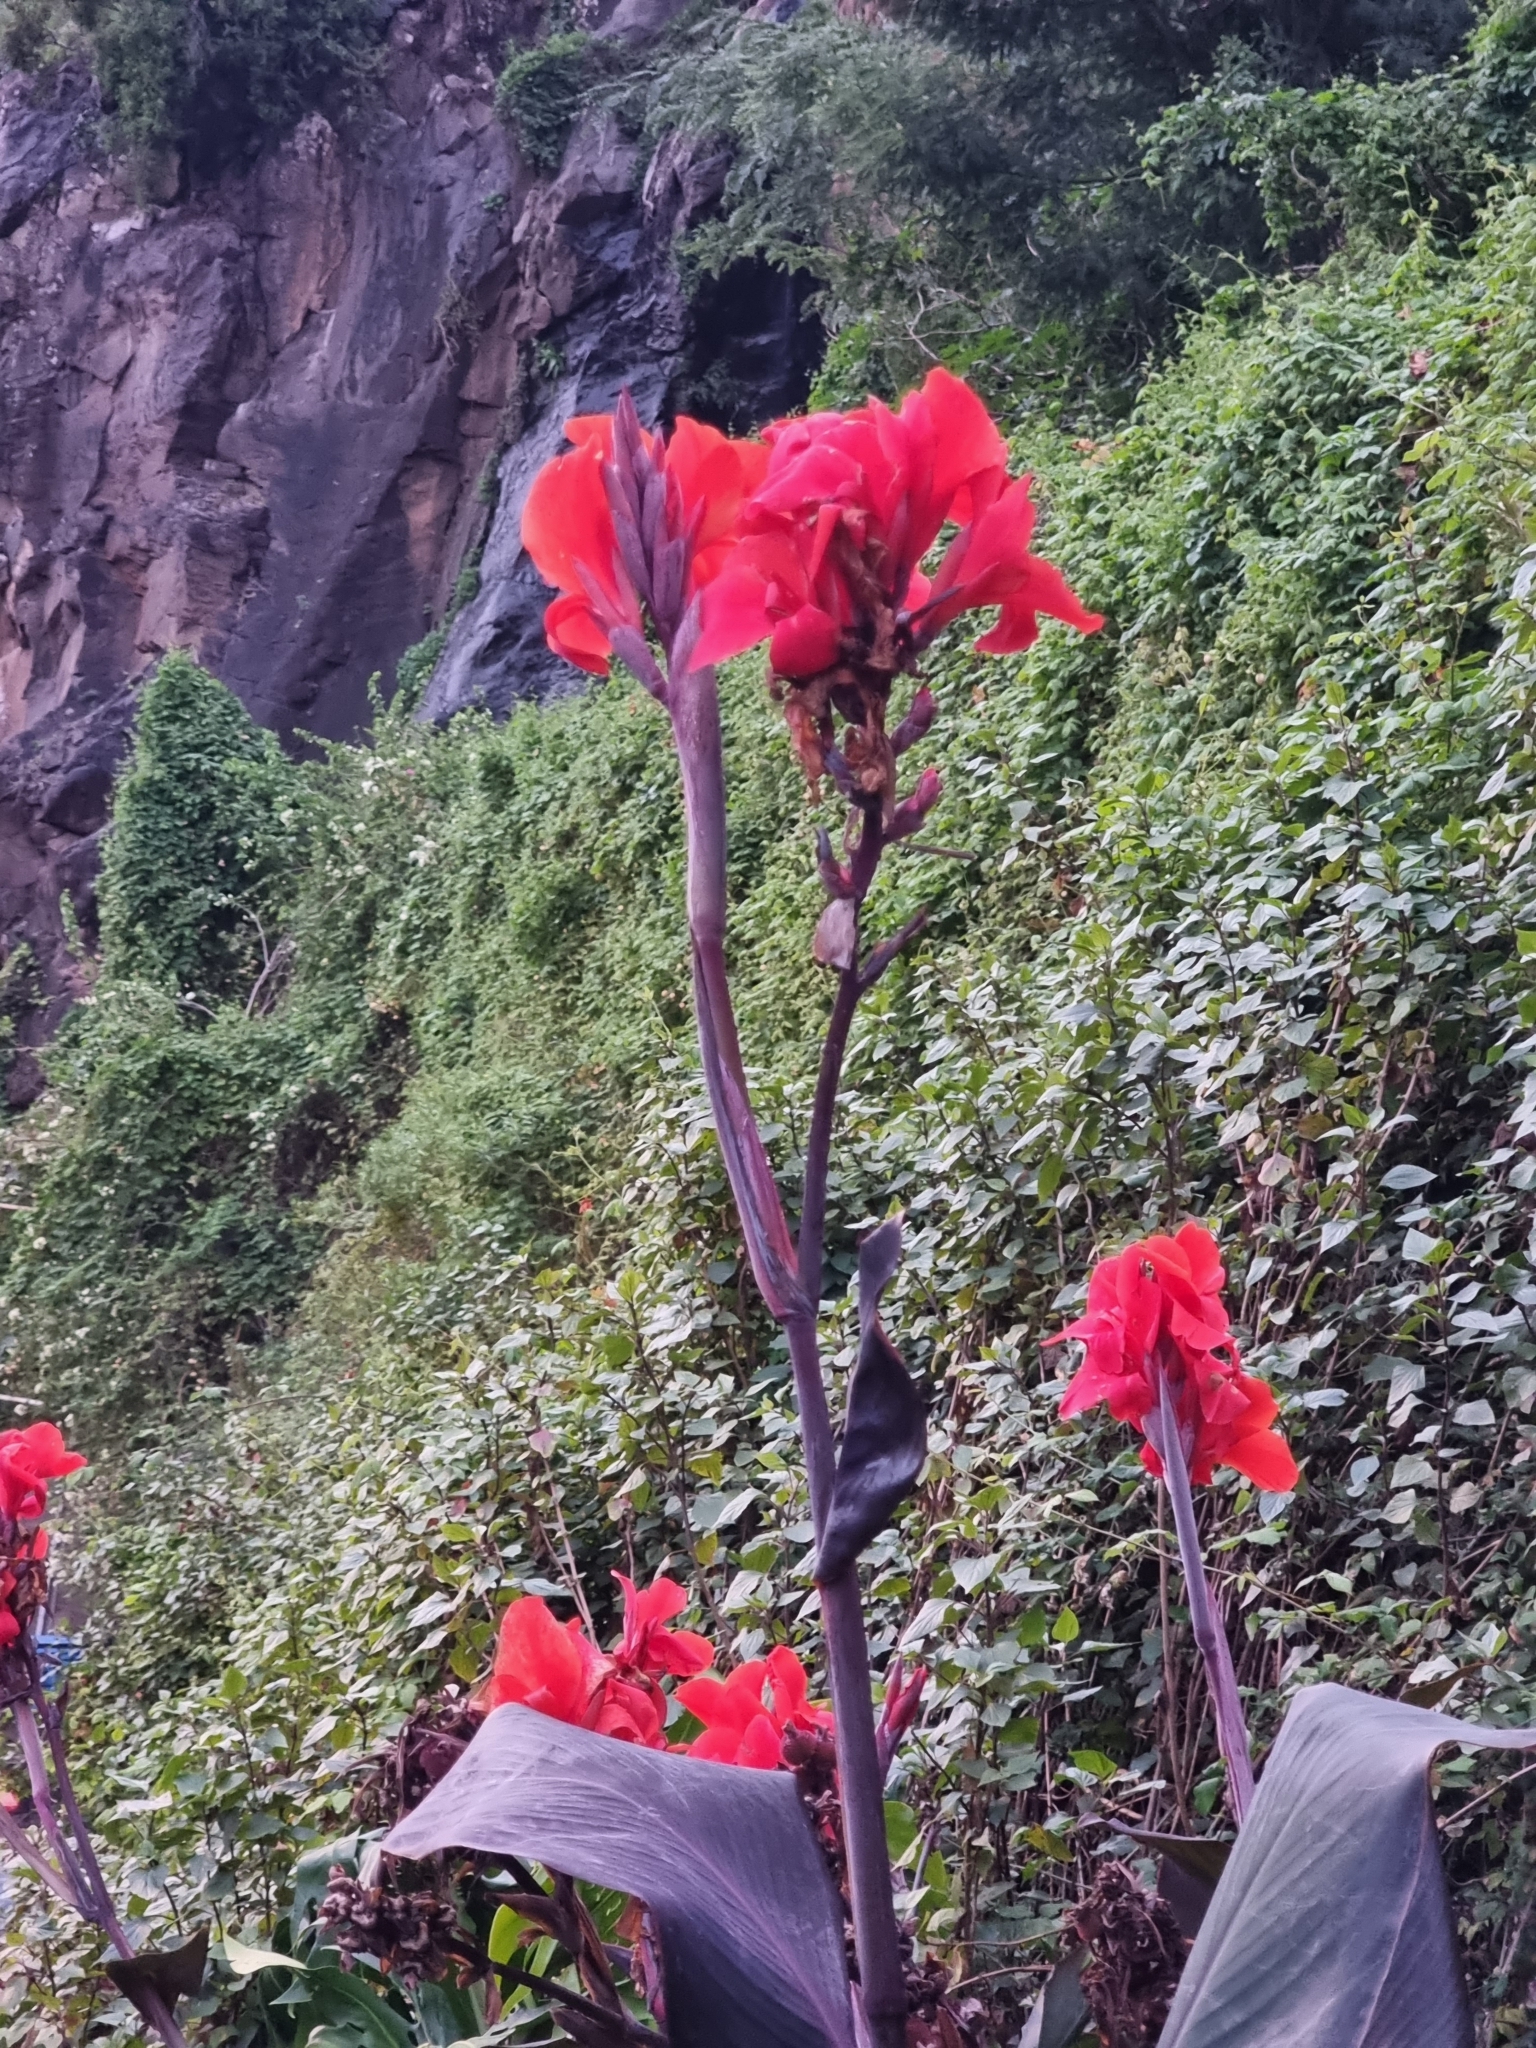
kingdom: Plantae
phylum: Tracheophyta
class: Liliopsida
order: Zingiberales
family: Cannaceae
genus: Canna
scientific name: Canna hybrida
